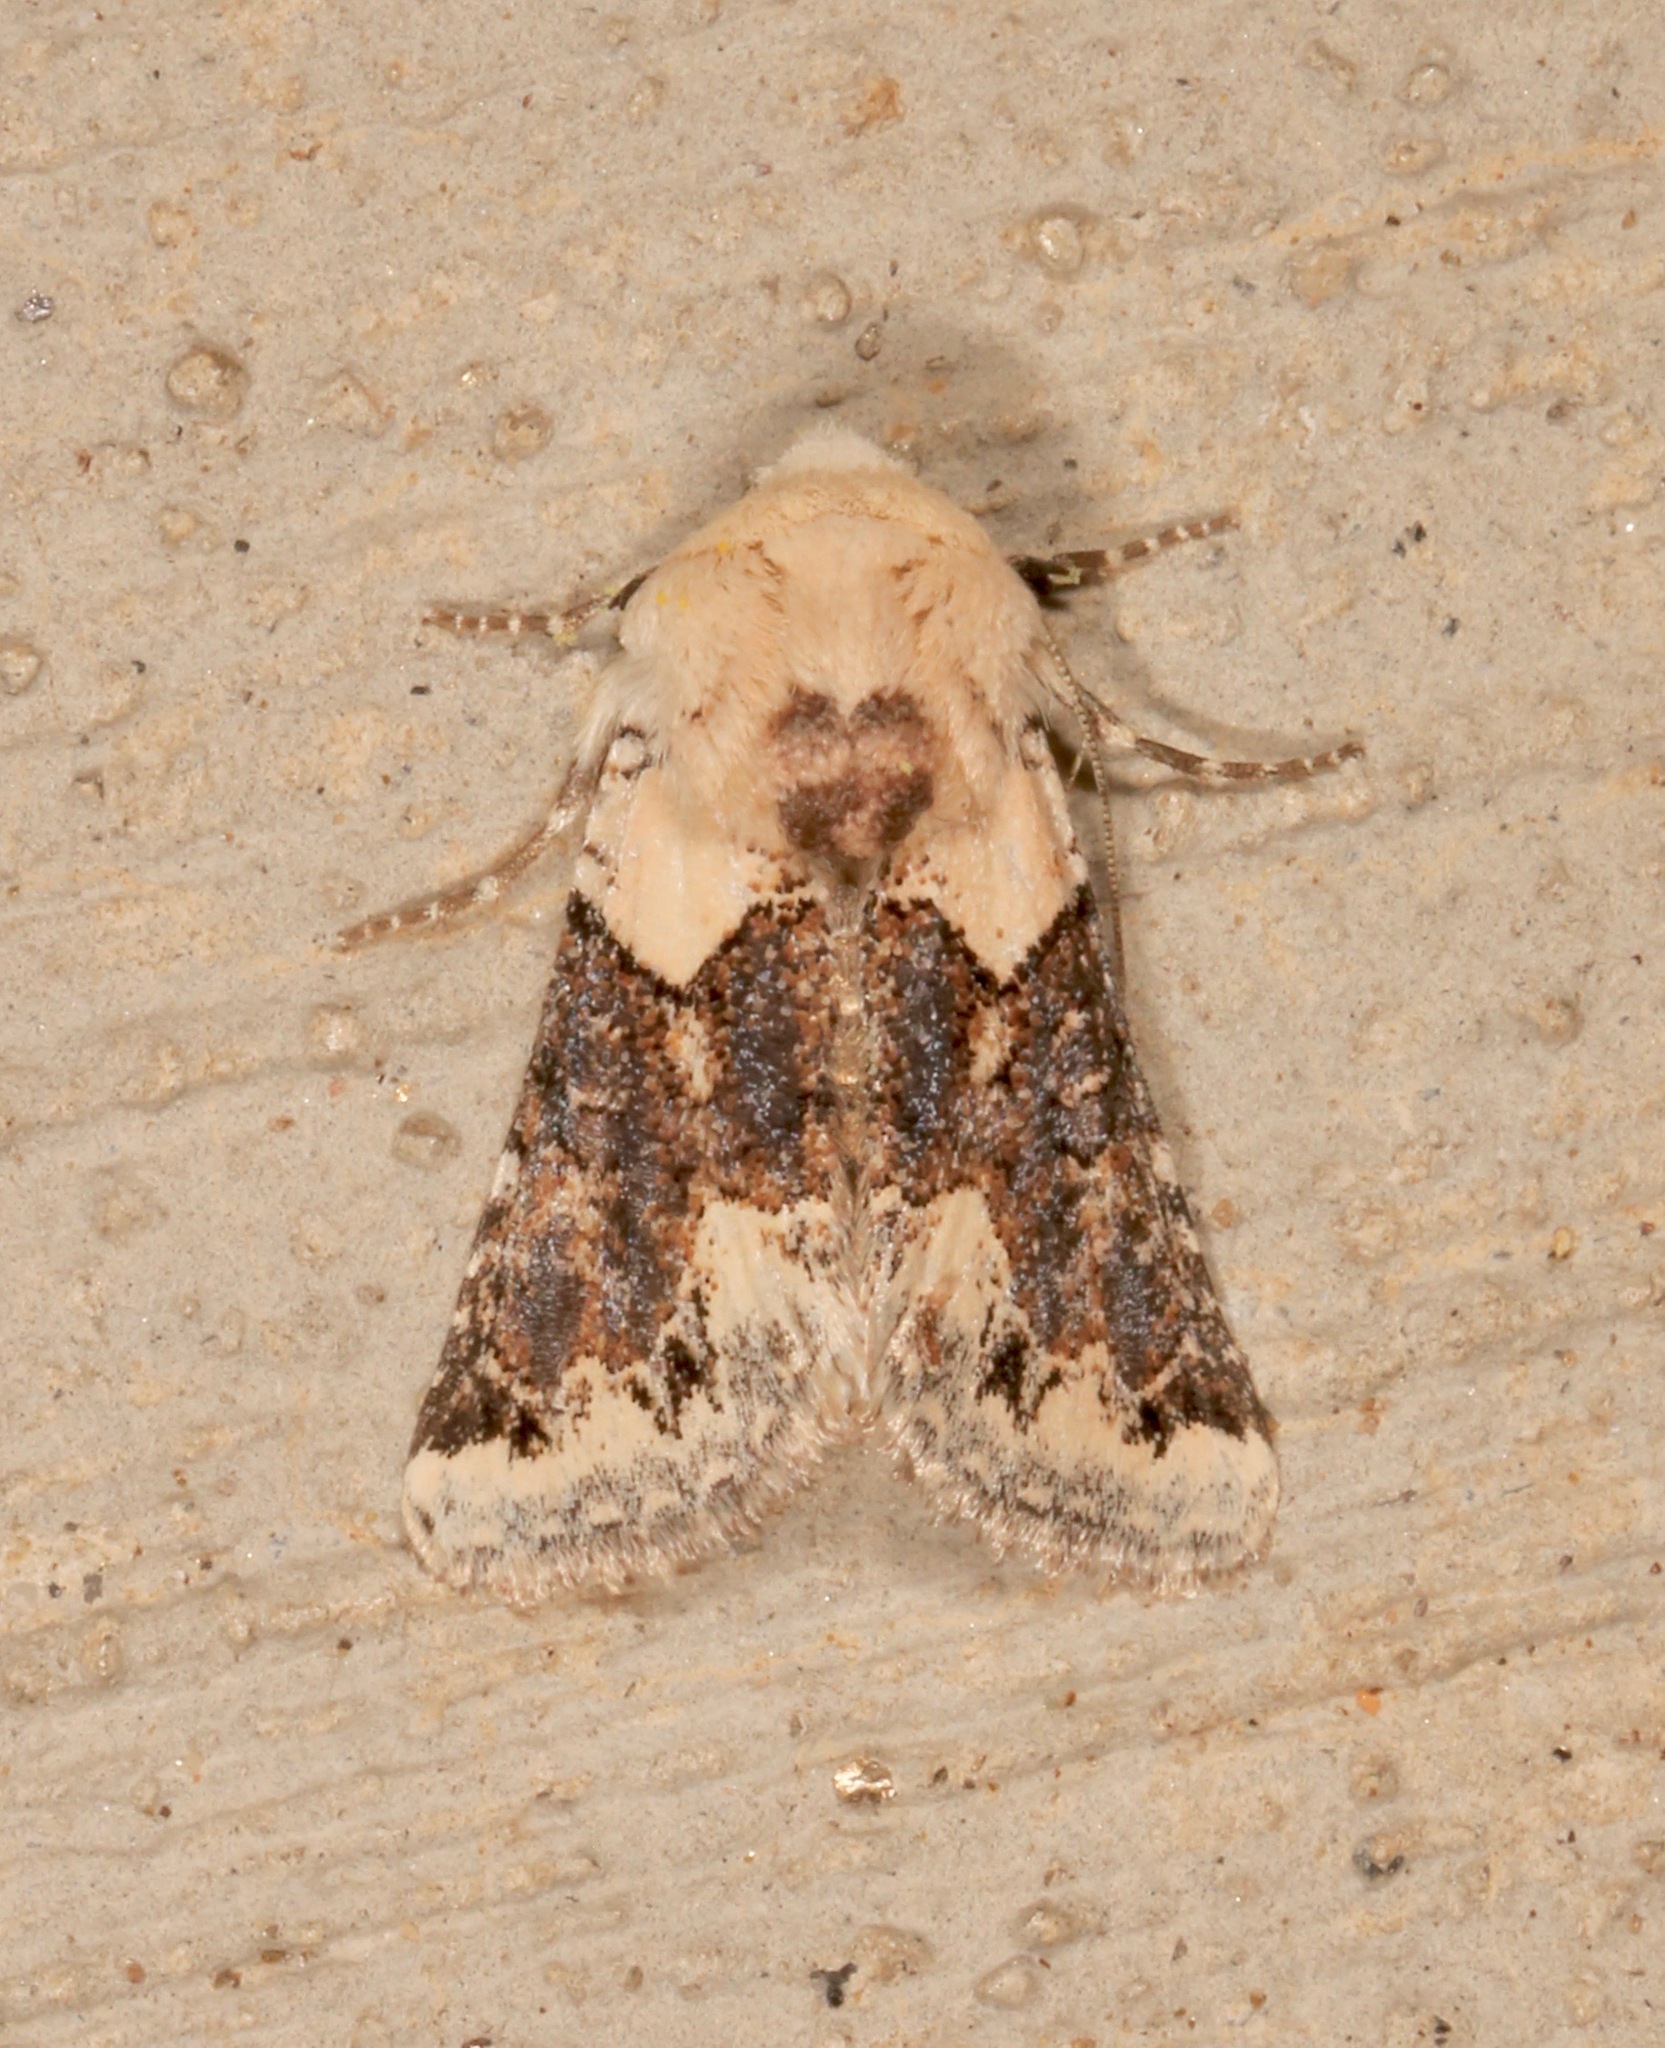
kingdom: Animalia
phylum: Arthropoda
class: Insecta
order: Lepidoptera
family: Noctuidae
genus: Triocnemis
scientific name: Triocnemis saporis
